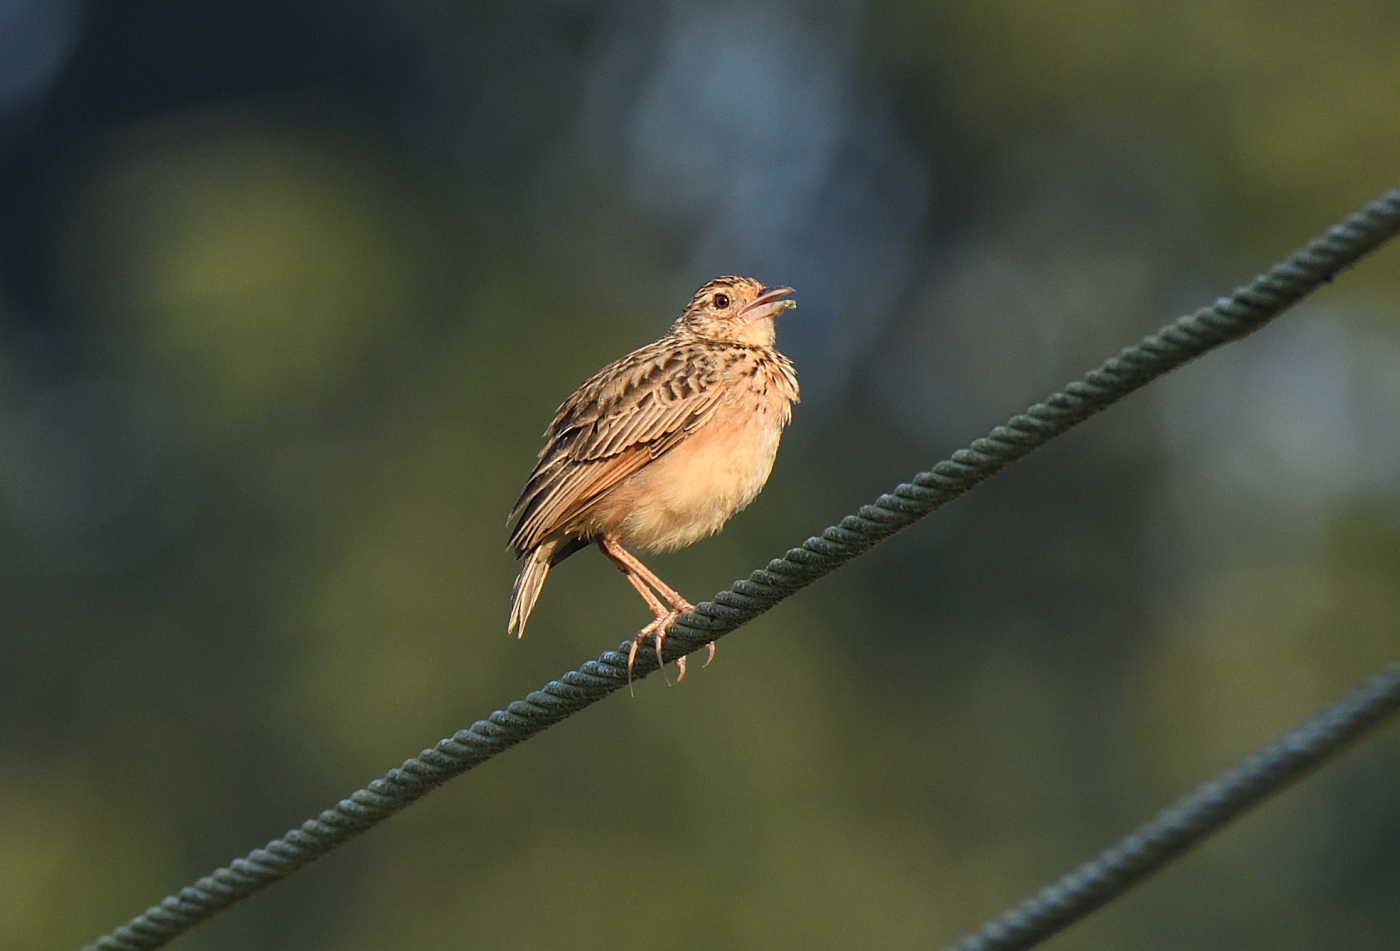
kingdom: Animalia
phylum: Chordata
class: Aves
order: Passeriformes
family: Alaudidae
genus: Mirafra
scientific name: Mirafra affinis
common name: Jerdon's bushlark
